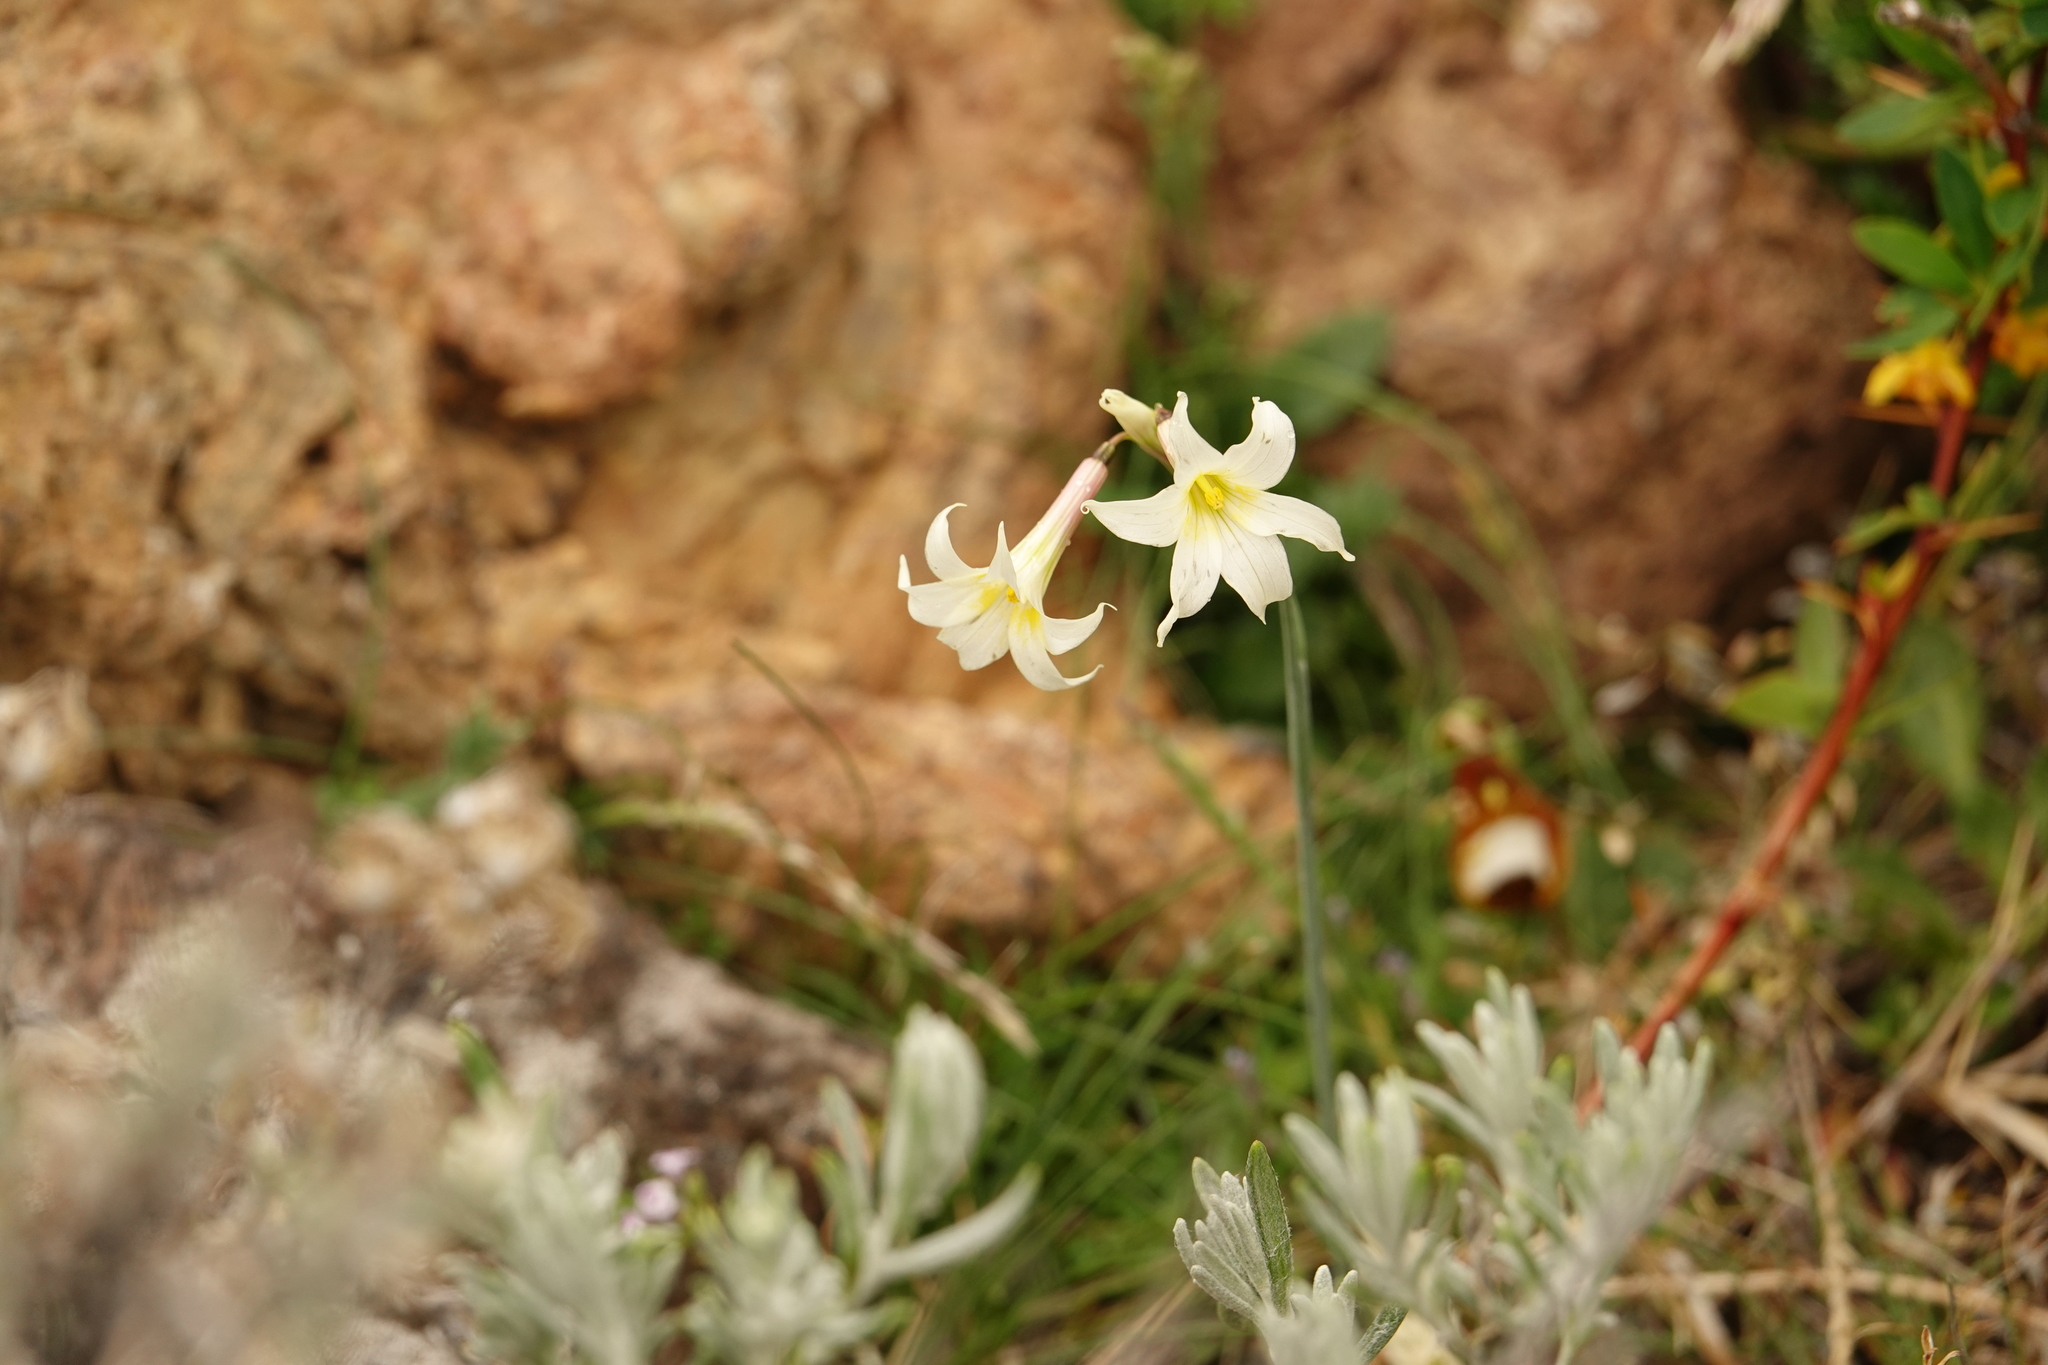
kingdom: Plantae
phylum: Tracheophyta
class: Liliopsida
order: Asparagales
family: Iridaceae
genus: Olsynium
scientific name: Olsynium biflorum
